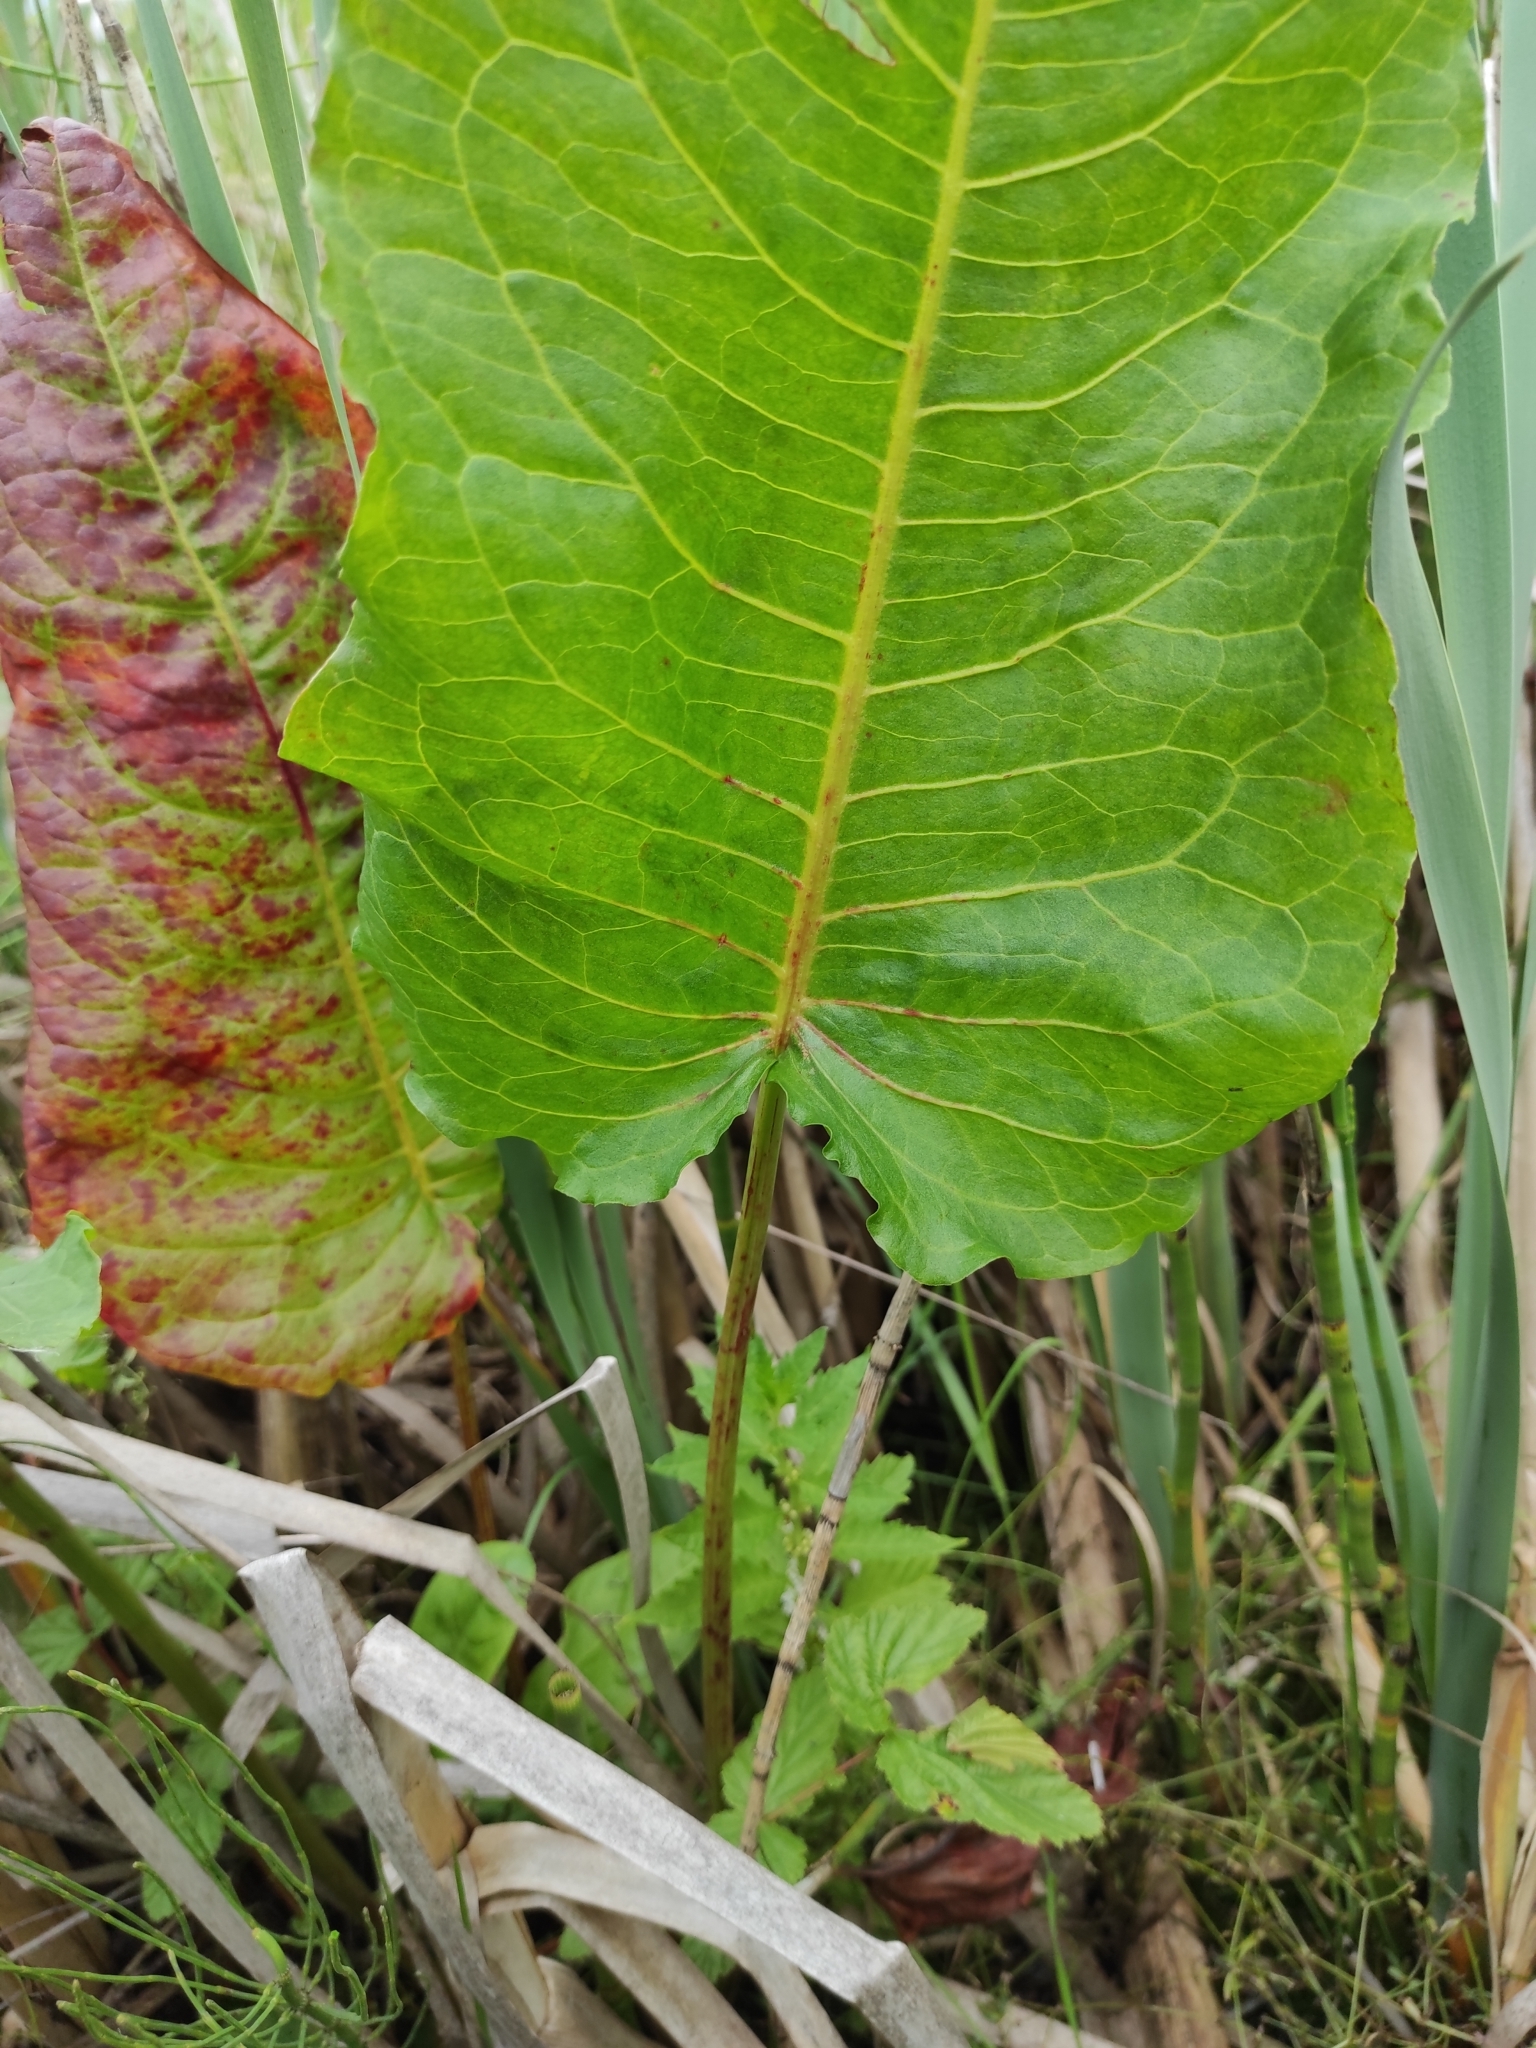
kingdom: Plantae
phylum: Tracheophyta
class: Magnoliopsida
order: Caryophyllales
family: Polygonaceae
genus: Rumex
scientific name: Rumex aquaticus
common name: Scottish dock
